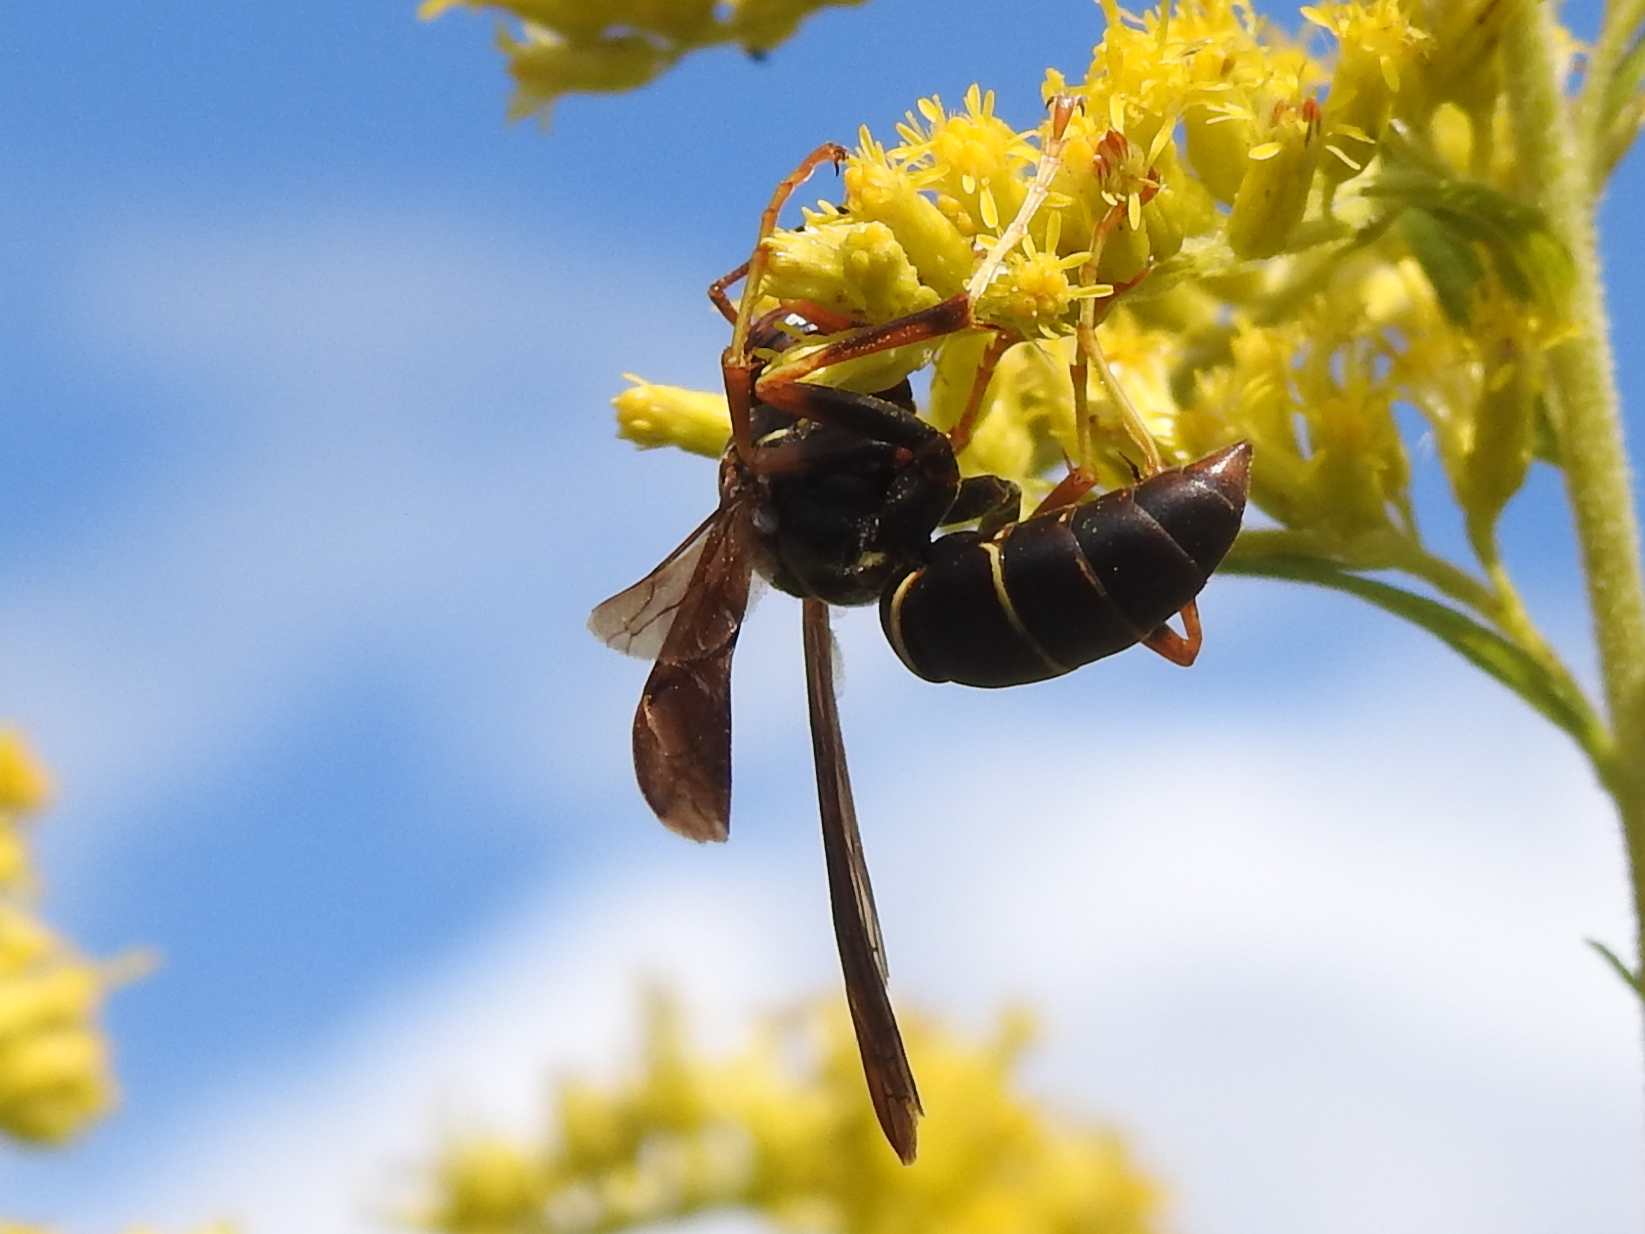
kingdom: Animalia
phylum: Arthropoda
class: Insecta
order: Hymenoptera
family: Eumenidae
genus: Polistes
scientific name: Polistes fuscatus
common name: Dark paper wasp
